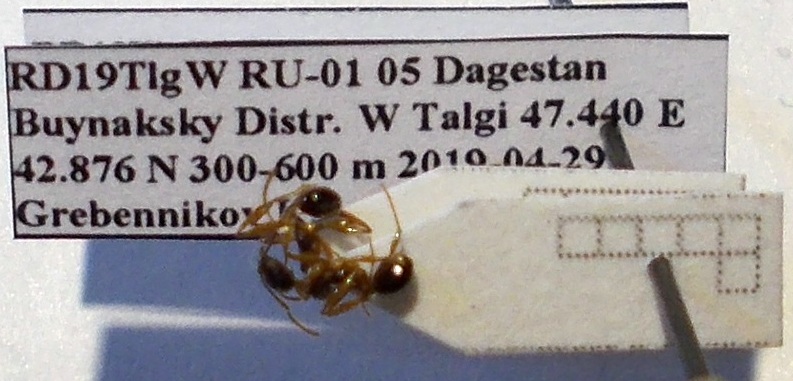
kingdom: Animalia
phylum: Arthropoda
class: Insecta
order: Hymenoptera
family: Formicidae
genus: Aphaenogaster
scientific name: Aphaenogaster
